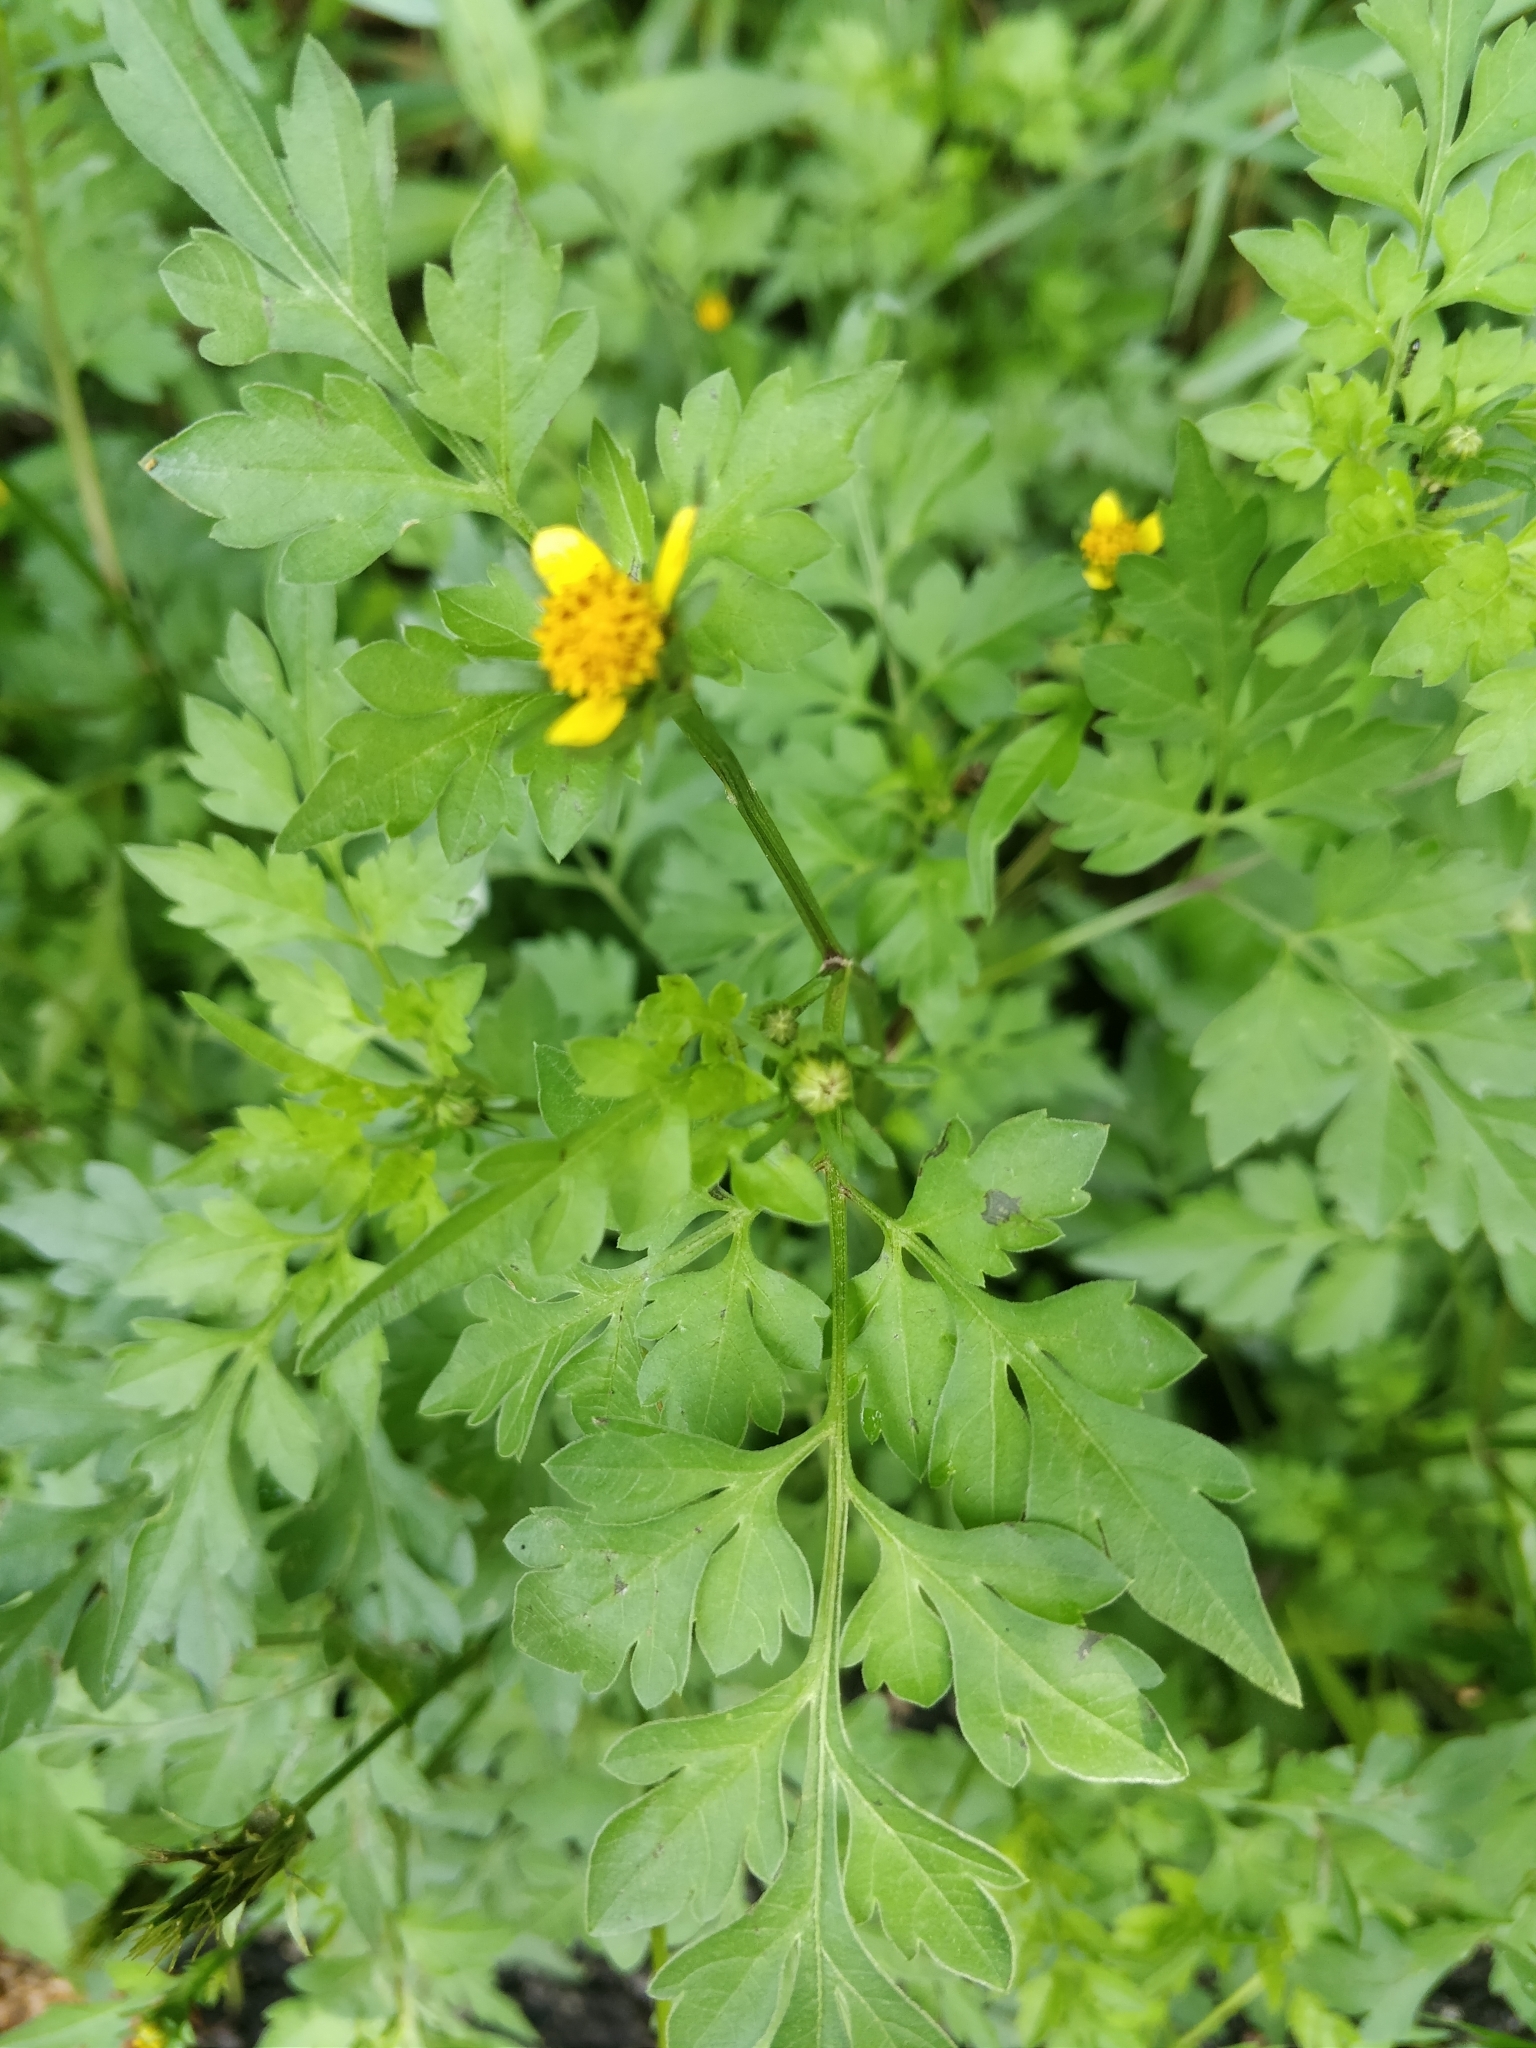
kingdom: Plantae
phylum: Tracheophyta
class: Magnoliopsida
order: Asterales
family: Asteraceae
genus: Bidens
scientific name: Bidens bipinnata
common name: Spanish-needles
